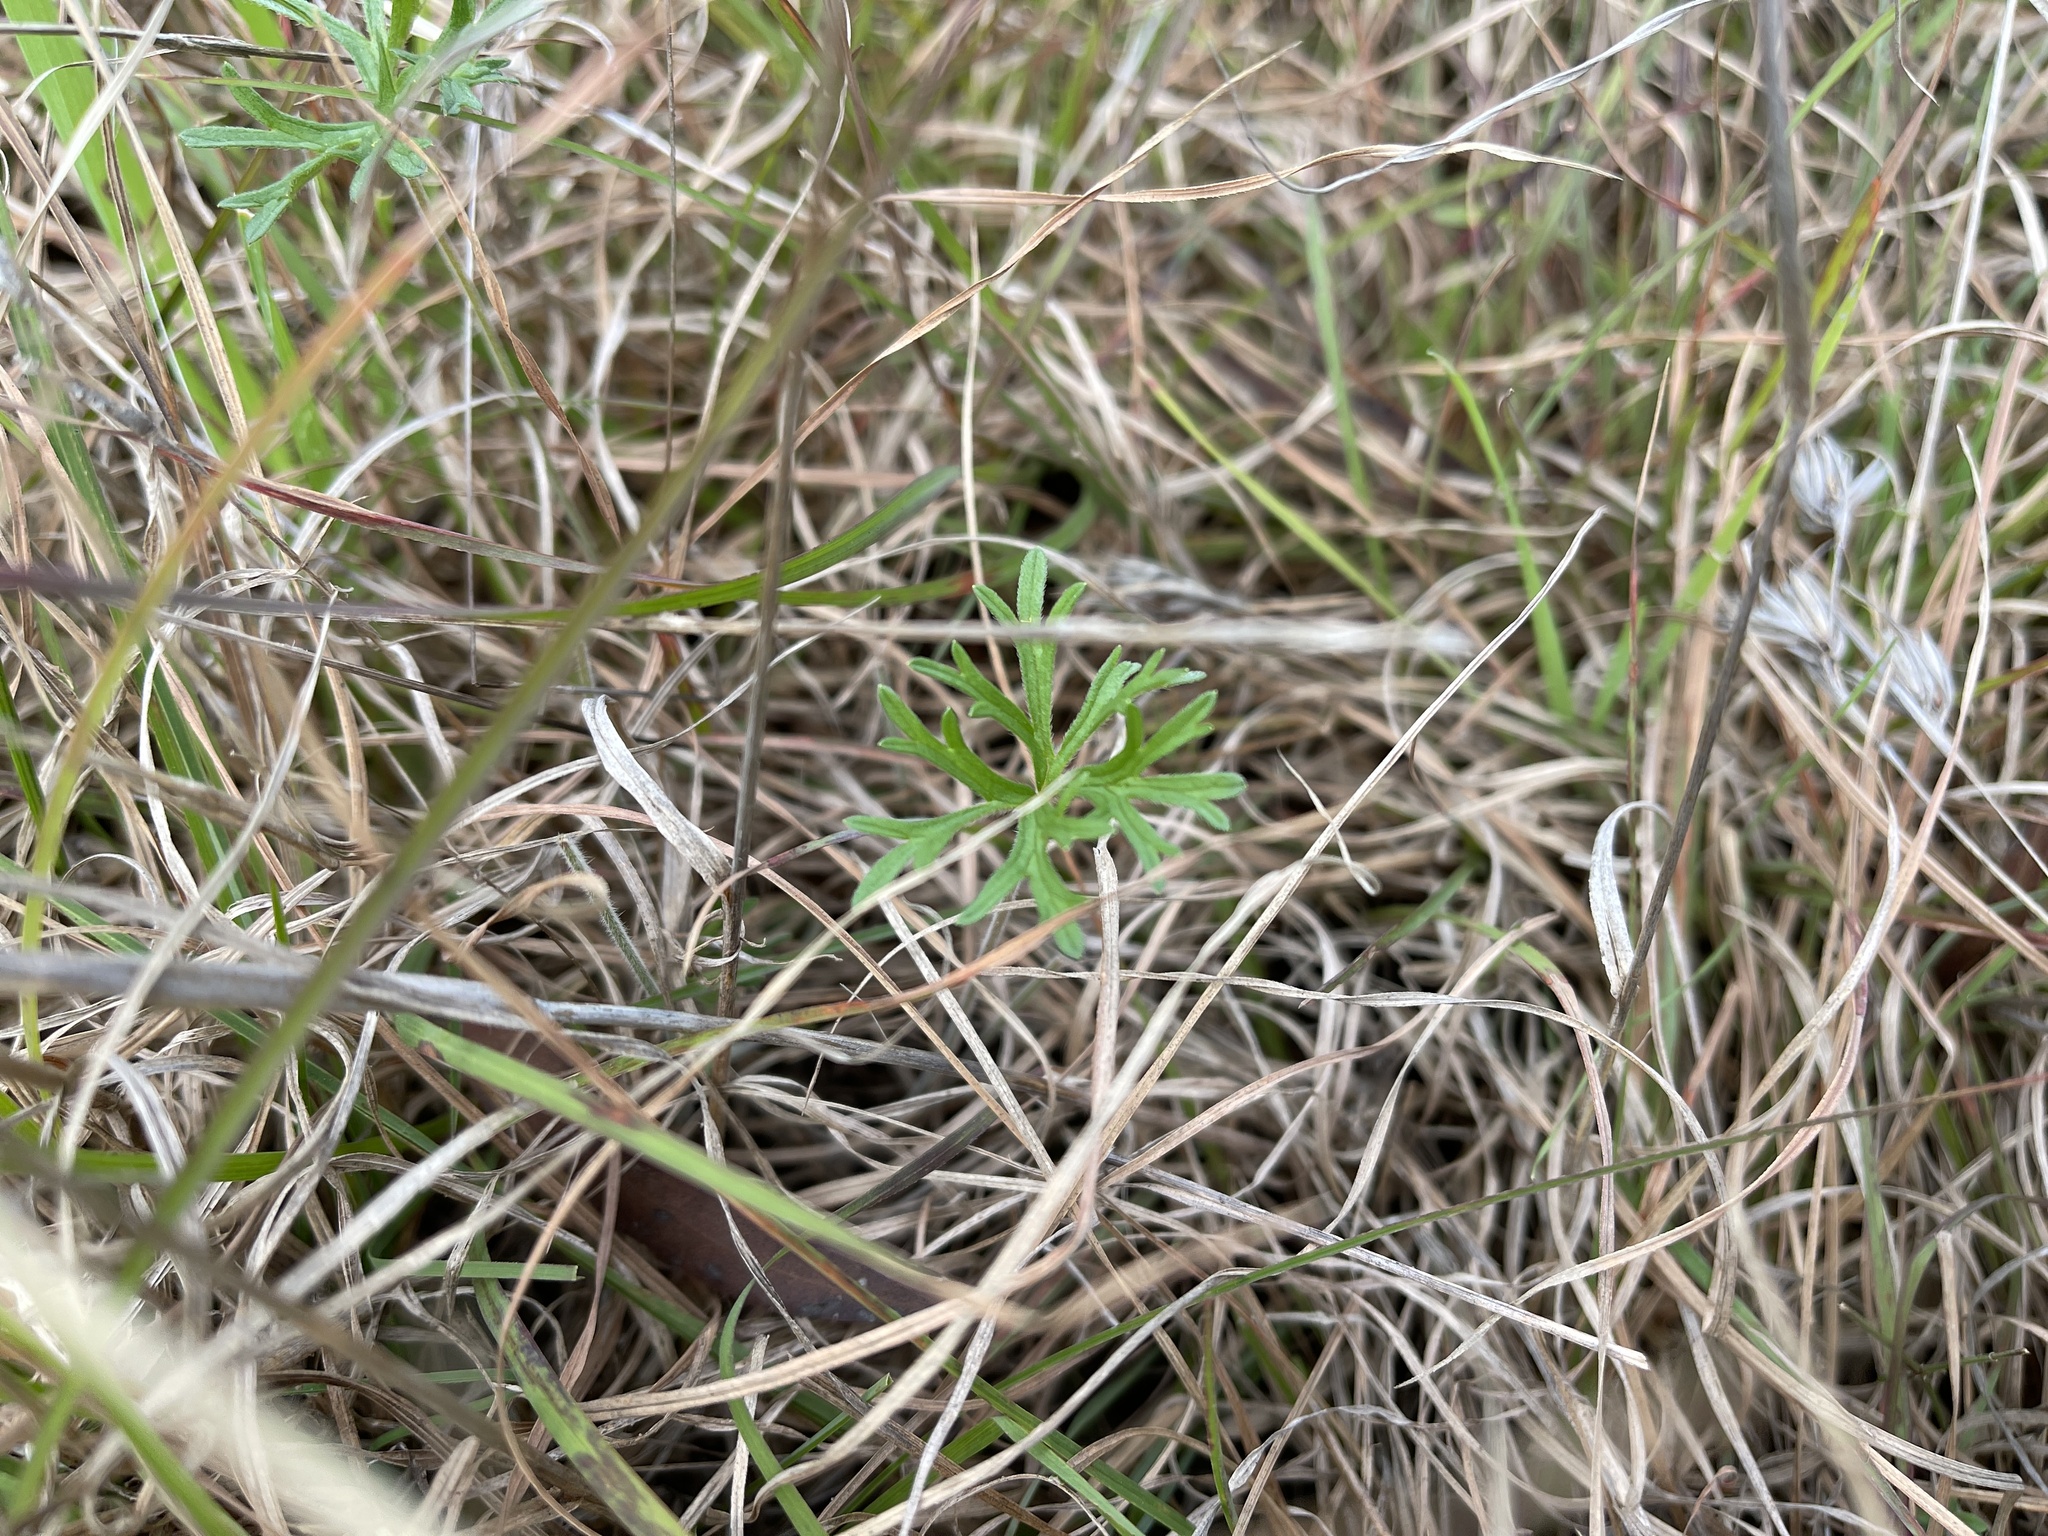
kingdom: Plantae
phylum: Tracheophyta
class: Magnoliopsida
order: Geraniales
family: Geraniaceae
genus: Geranium
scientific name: Geranium retrorsum
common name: New zealand geranium
